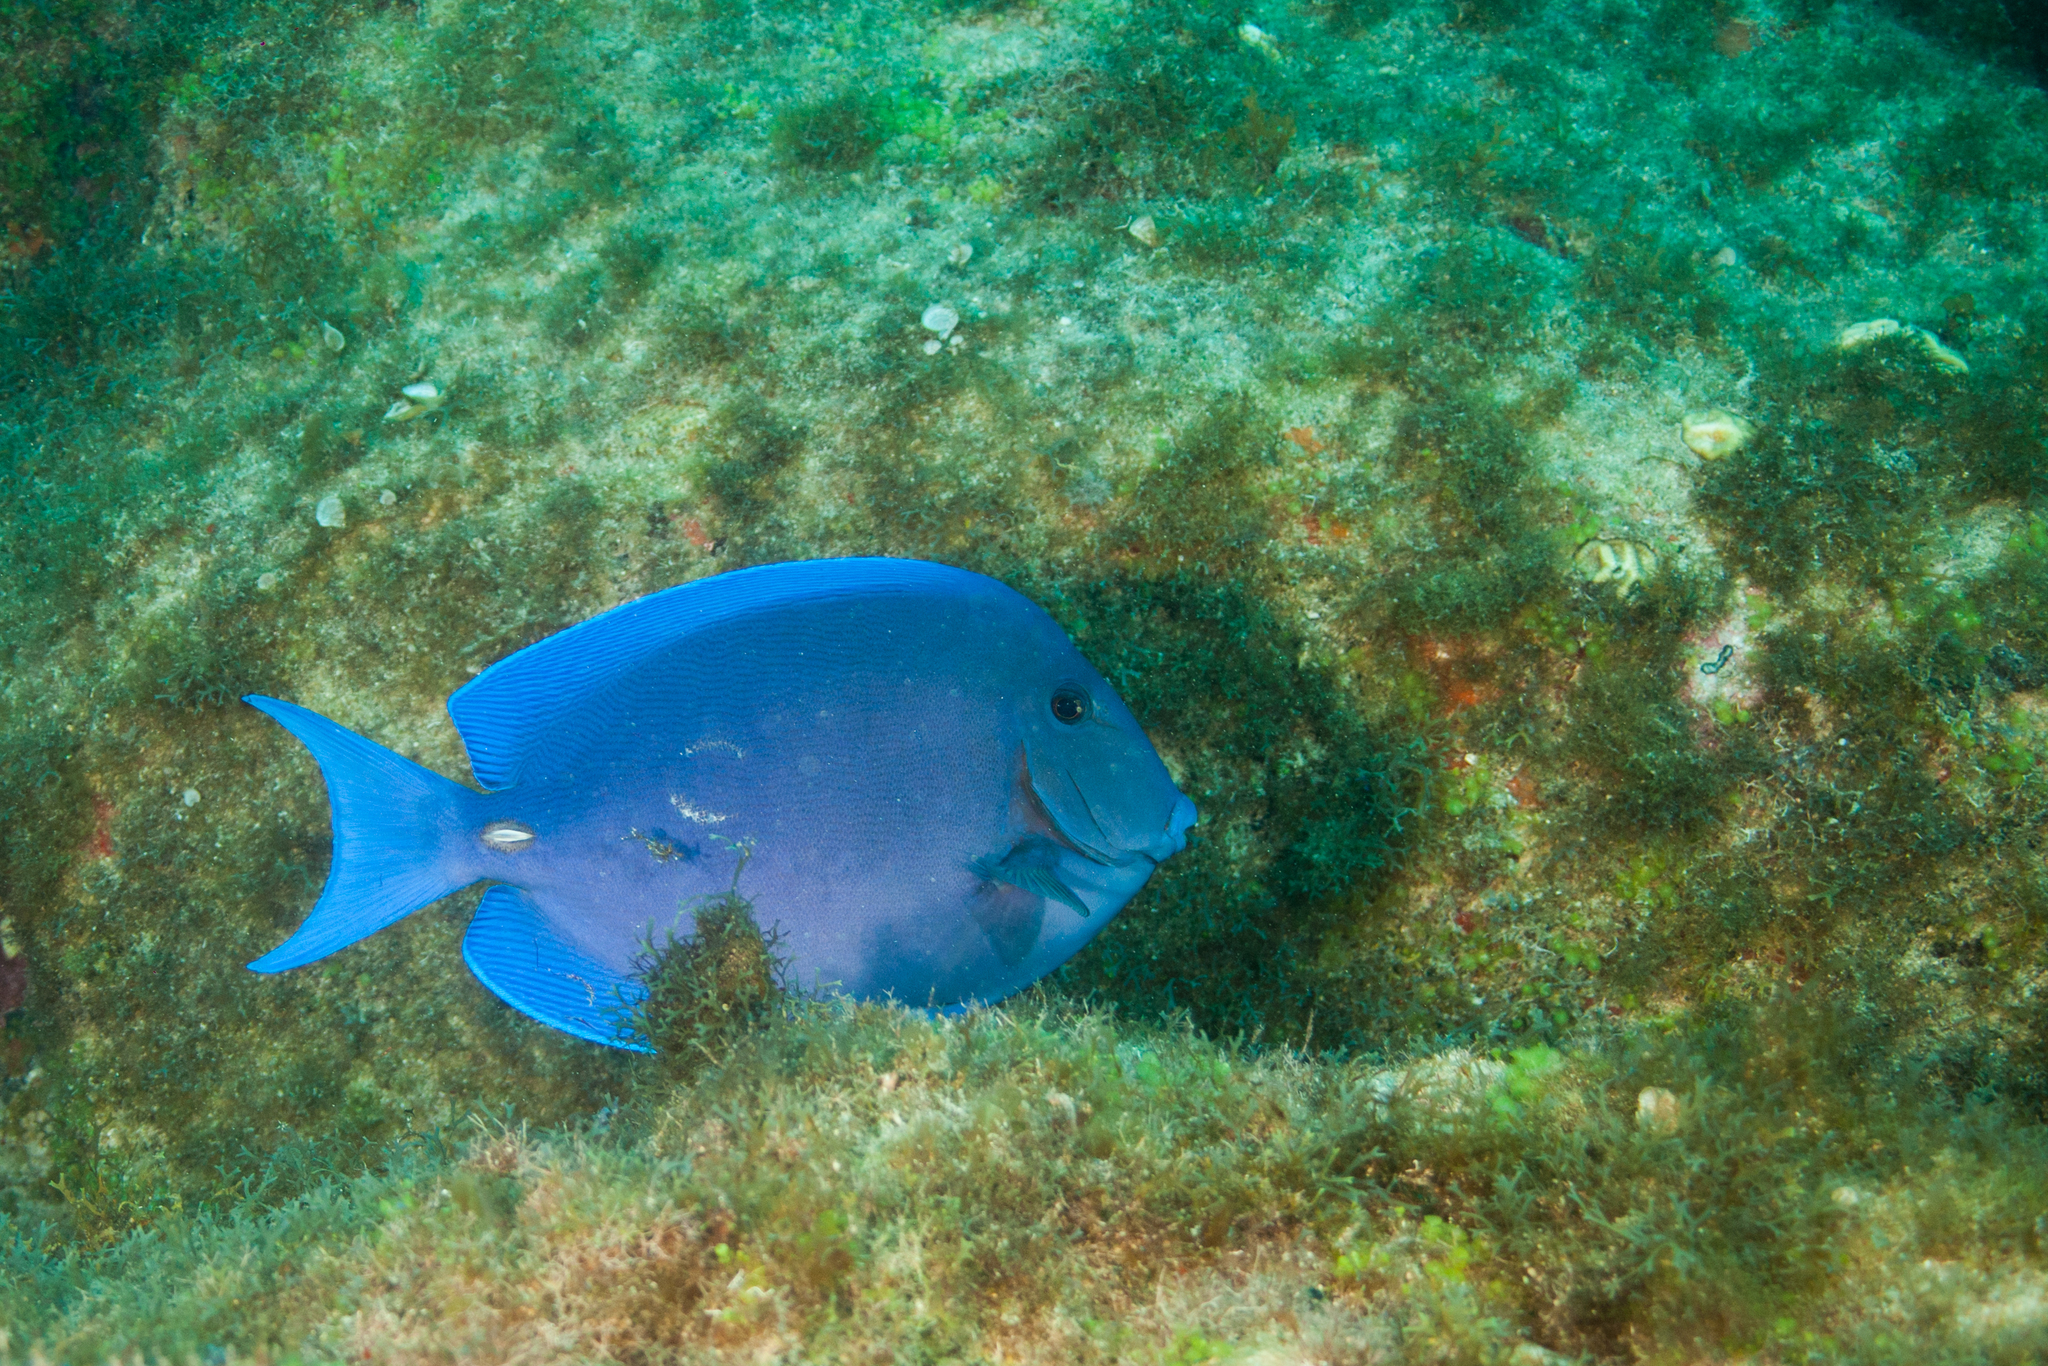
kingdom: Animalia
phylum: Chordata
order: Perciformes
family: Acanthuridae
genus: Acanthurus
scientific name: Acanthurus coeruleus
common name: Blue tang
